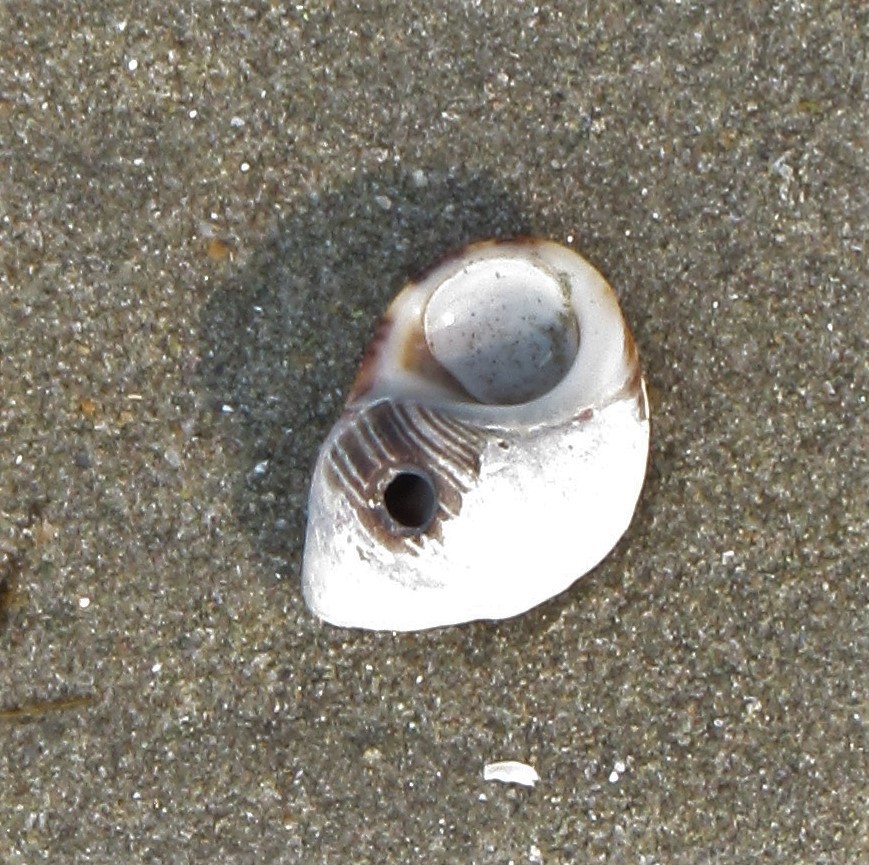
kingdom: Animalia
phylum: Mollusca
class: Gastropoda
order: Littorinimorpha
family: Littorinidae
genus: Littorina
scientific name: Littorina littorea
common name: Common periwinkle
